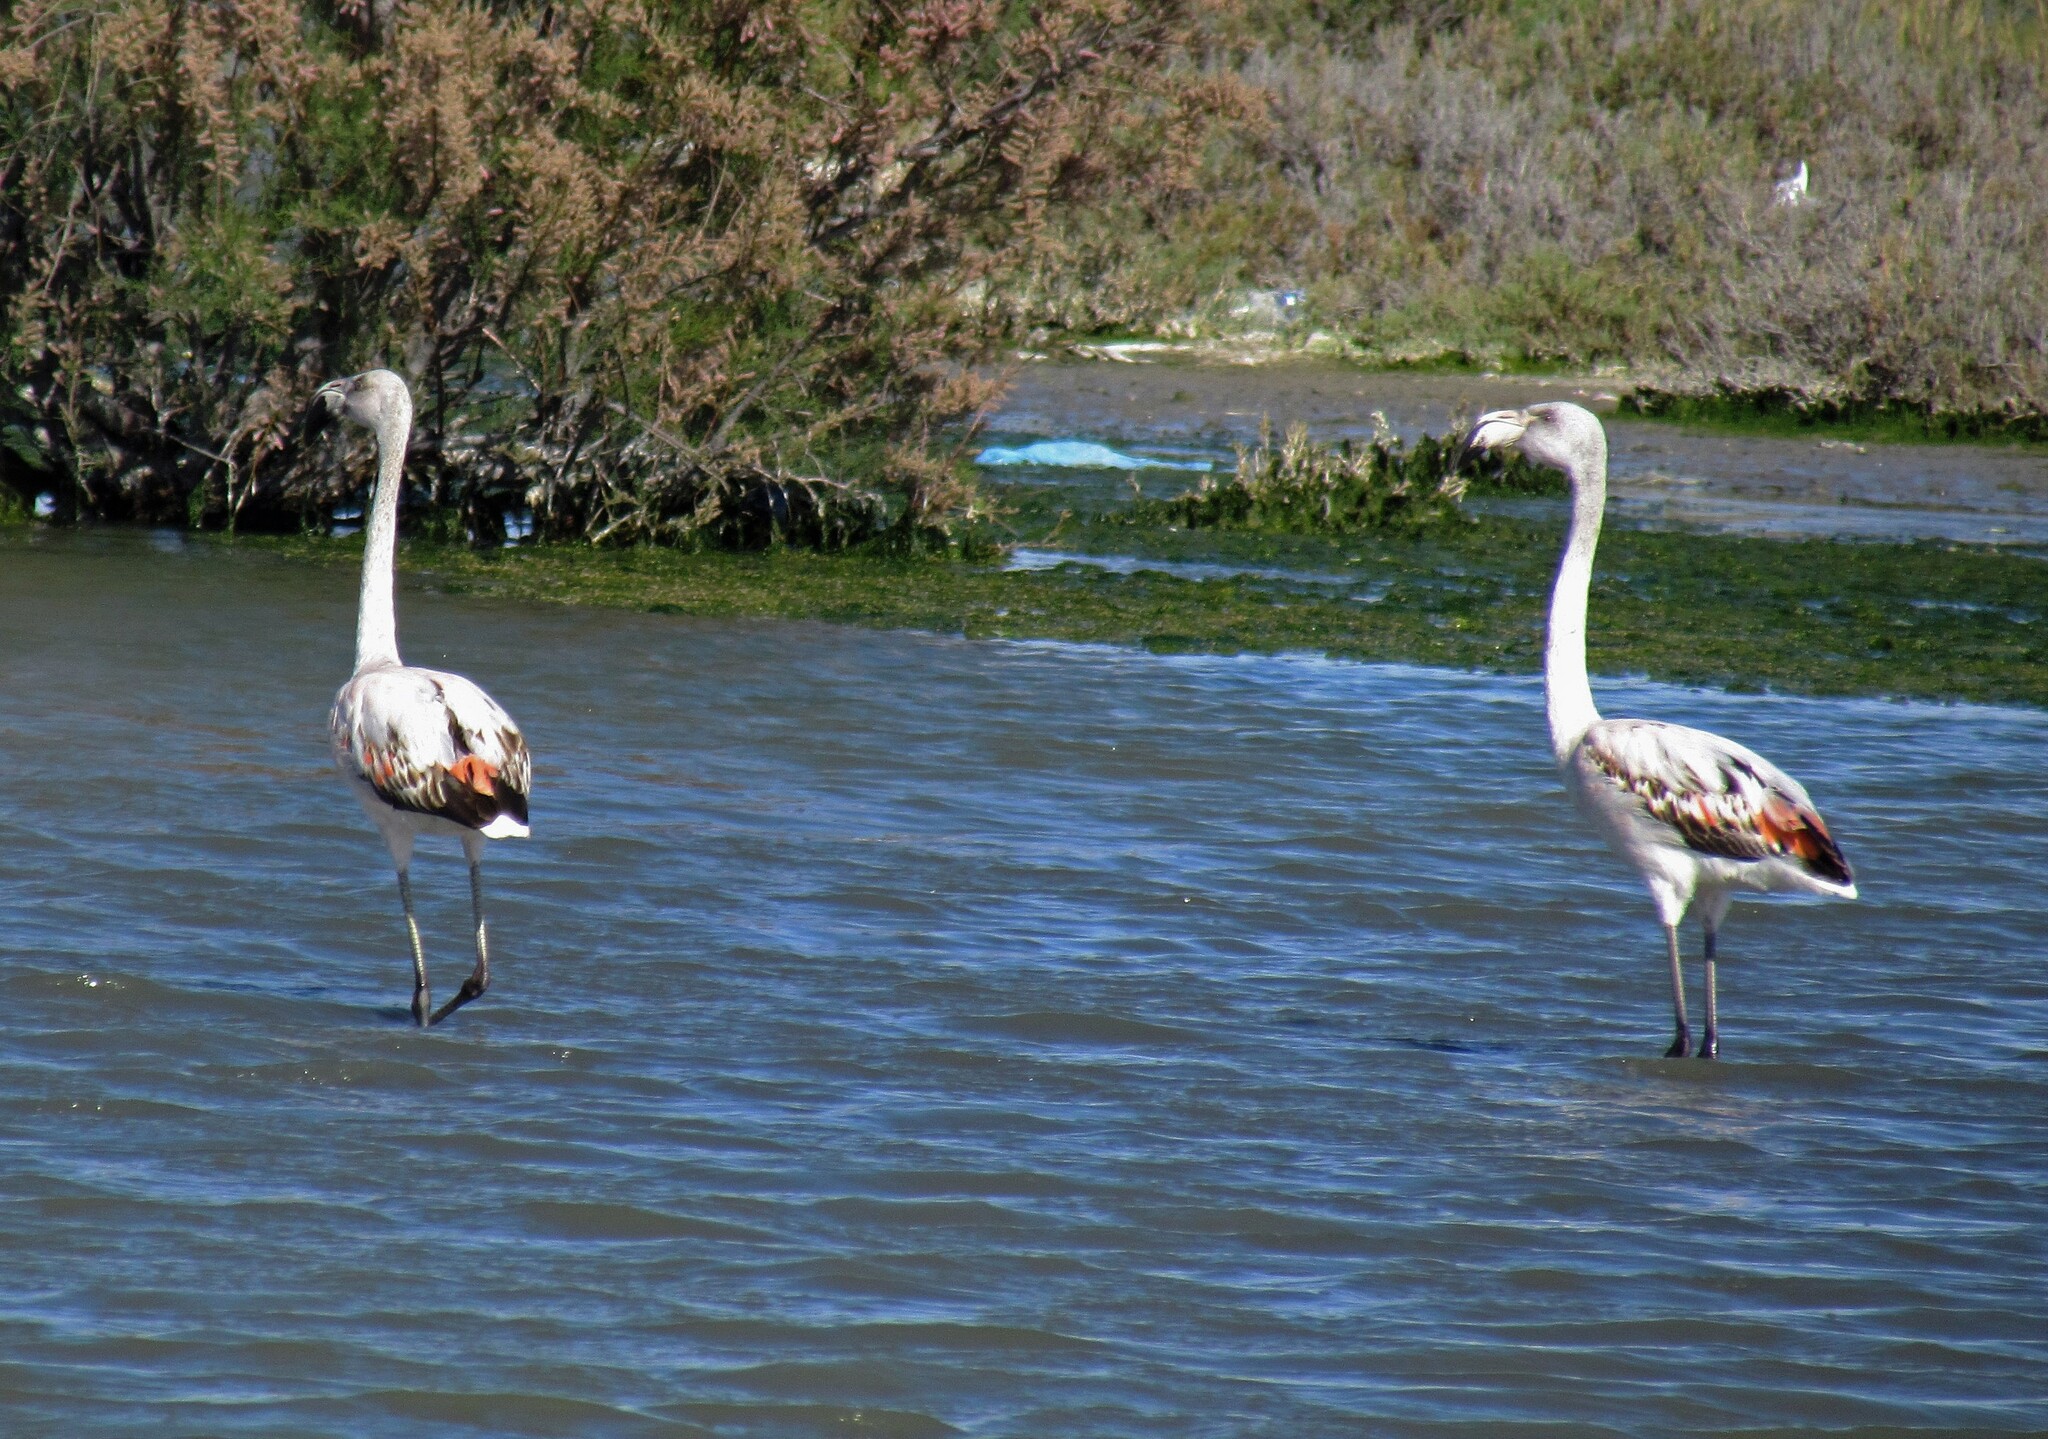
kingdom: Animalia
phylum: Chordata
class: Aves
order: Phoenicopteriformes
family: Phoenicopteridae
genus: Phoenicopterus
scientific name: Phoenicopterus chilensis
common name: Chilean flamingo
